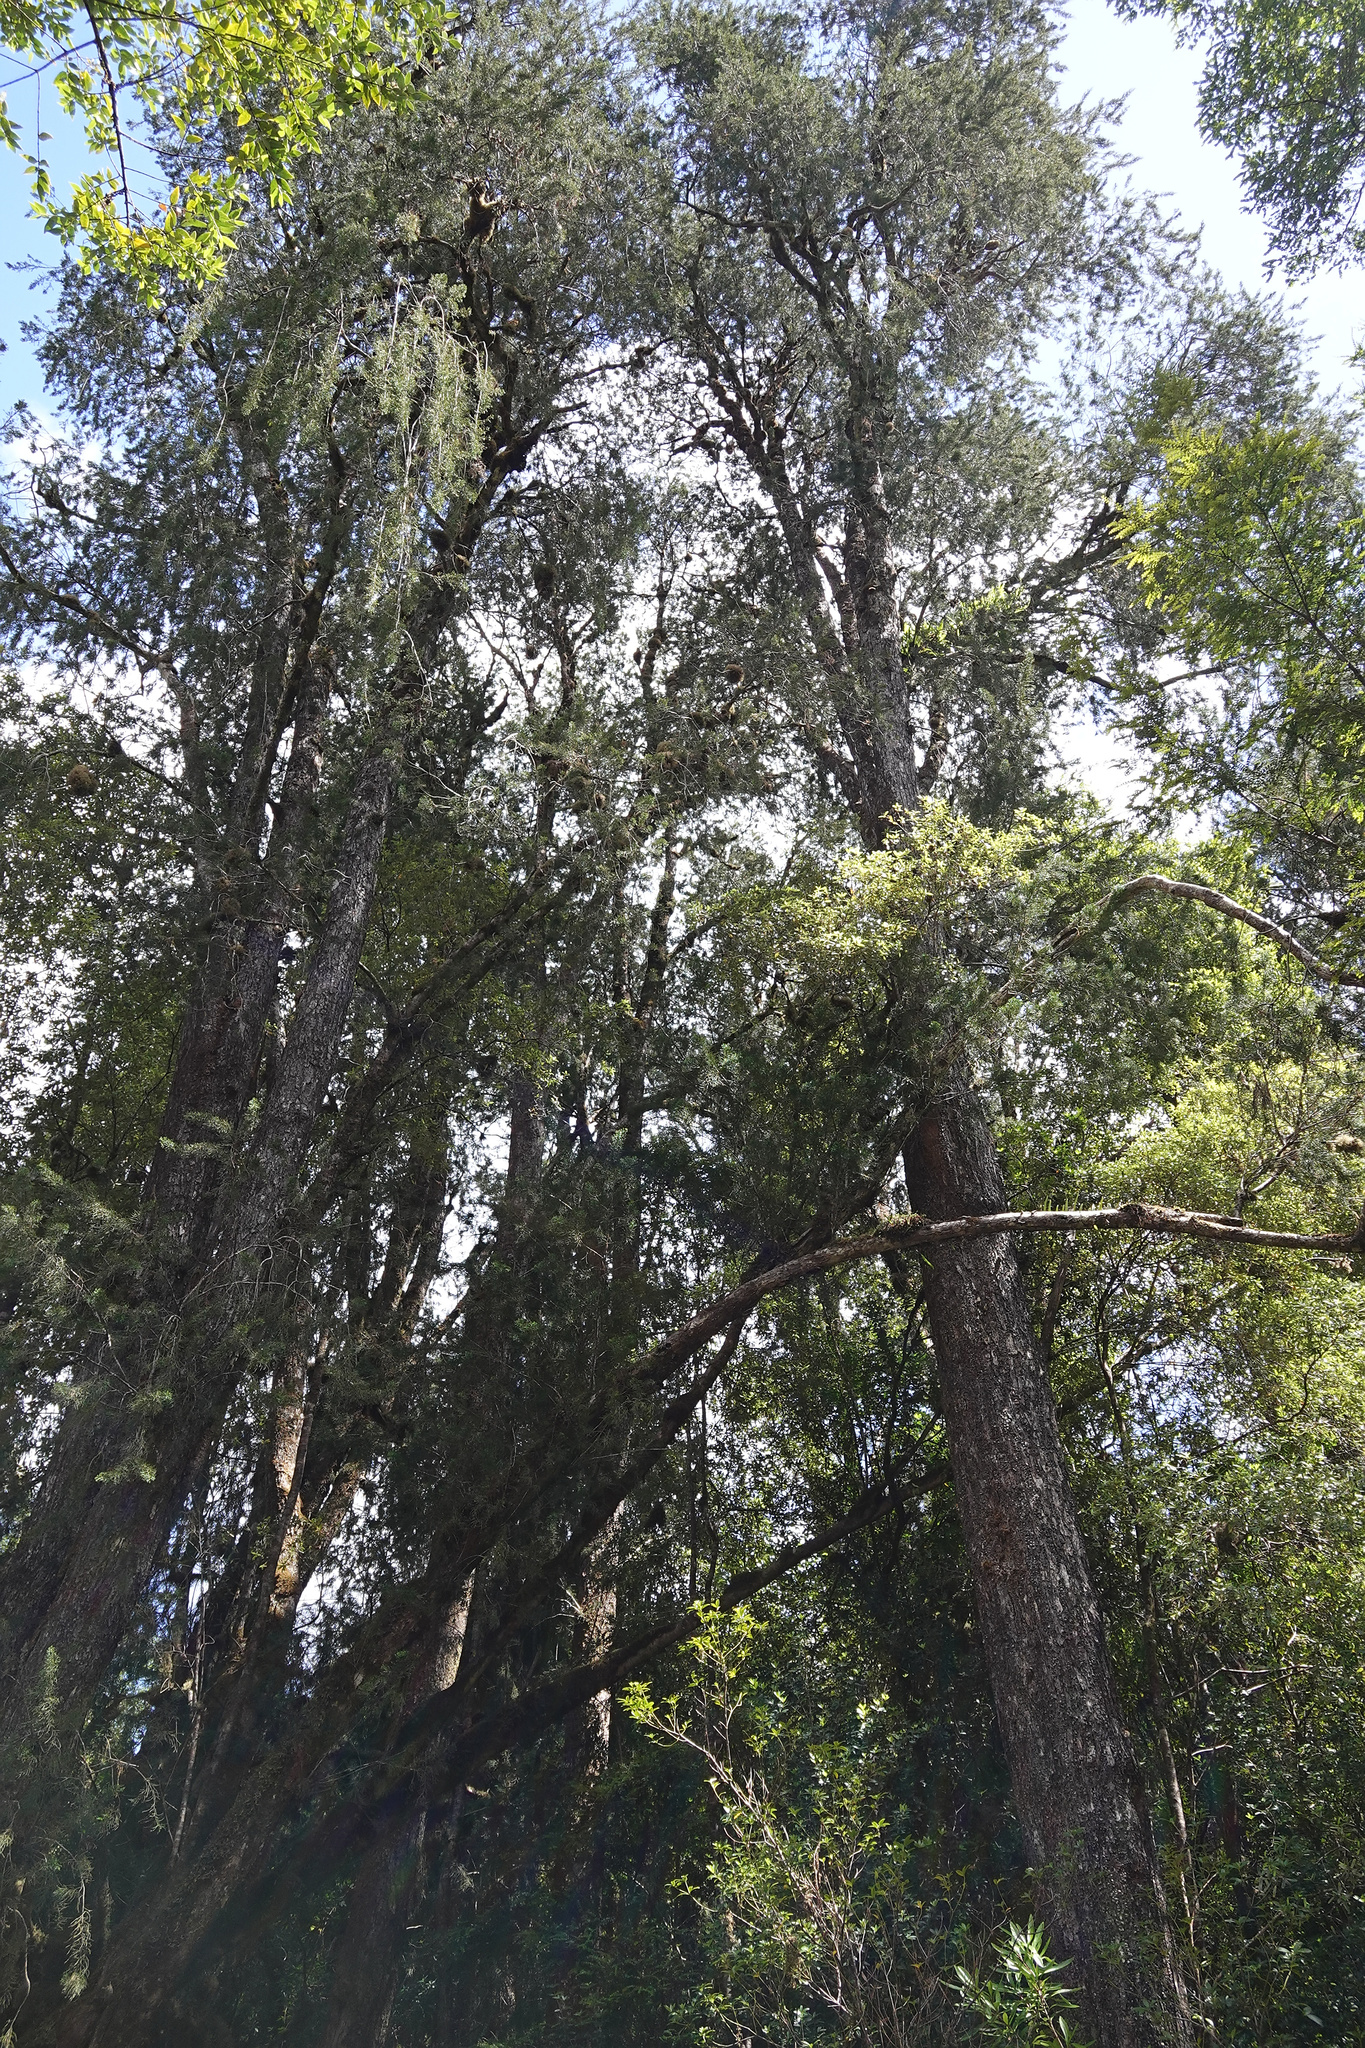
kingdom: Plantae
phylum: Tracheophyta
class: Pinopsida
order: Pinales
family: Podocarpaceae
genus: Lagarostrobos
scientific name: Lagarostrobos franklinii
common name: Huon pine
